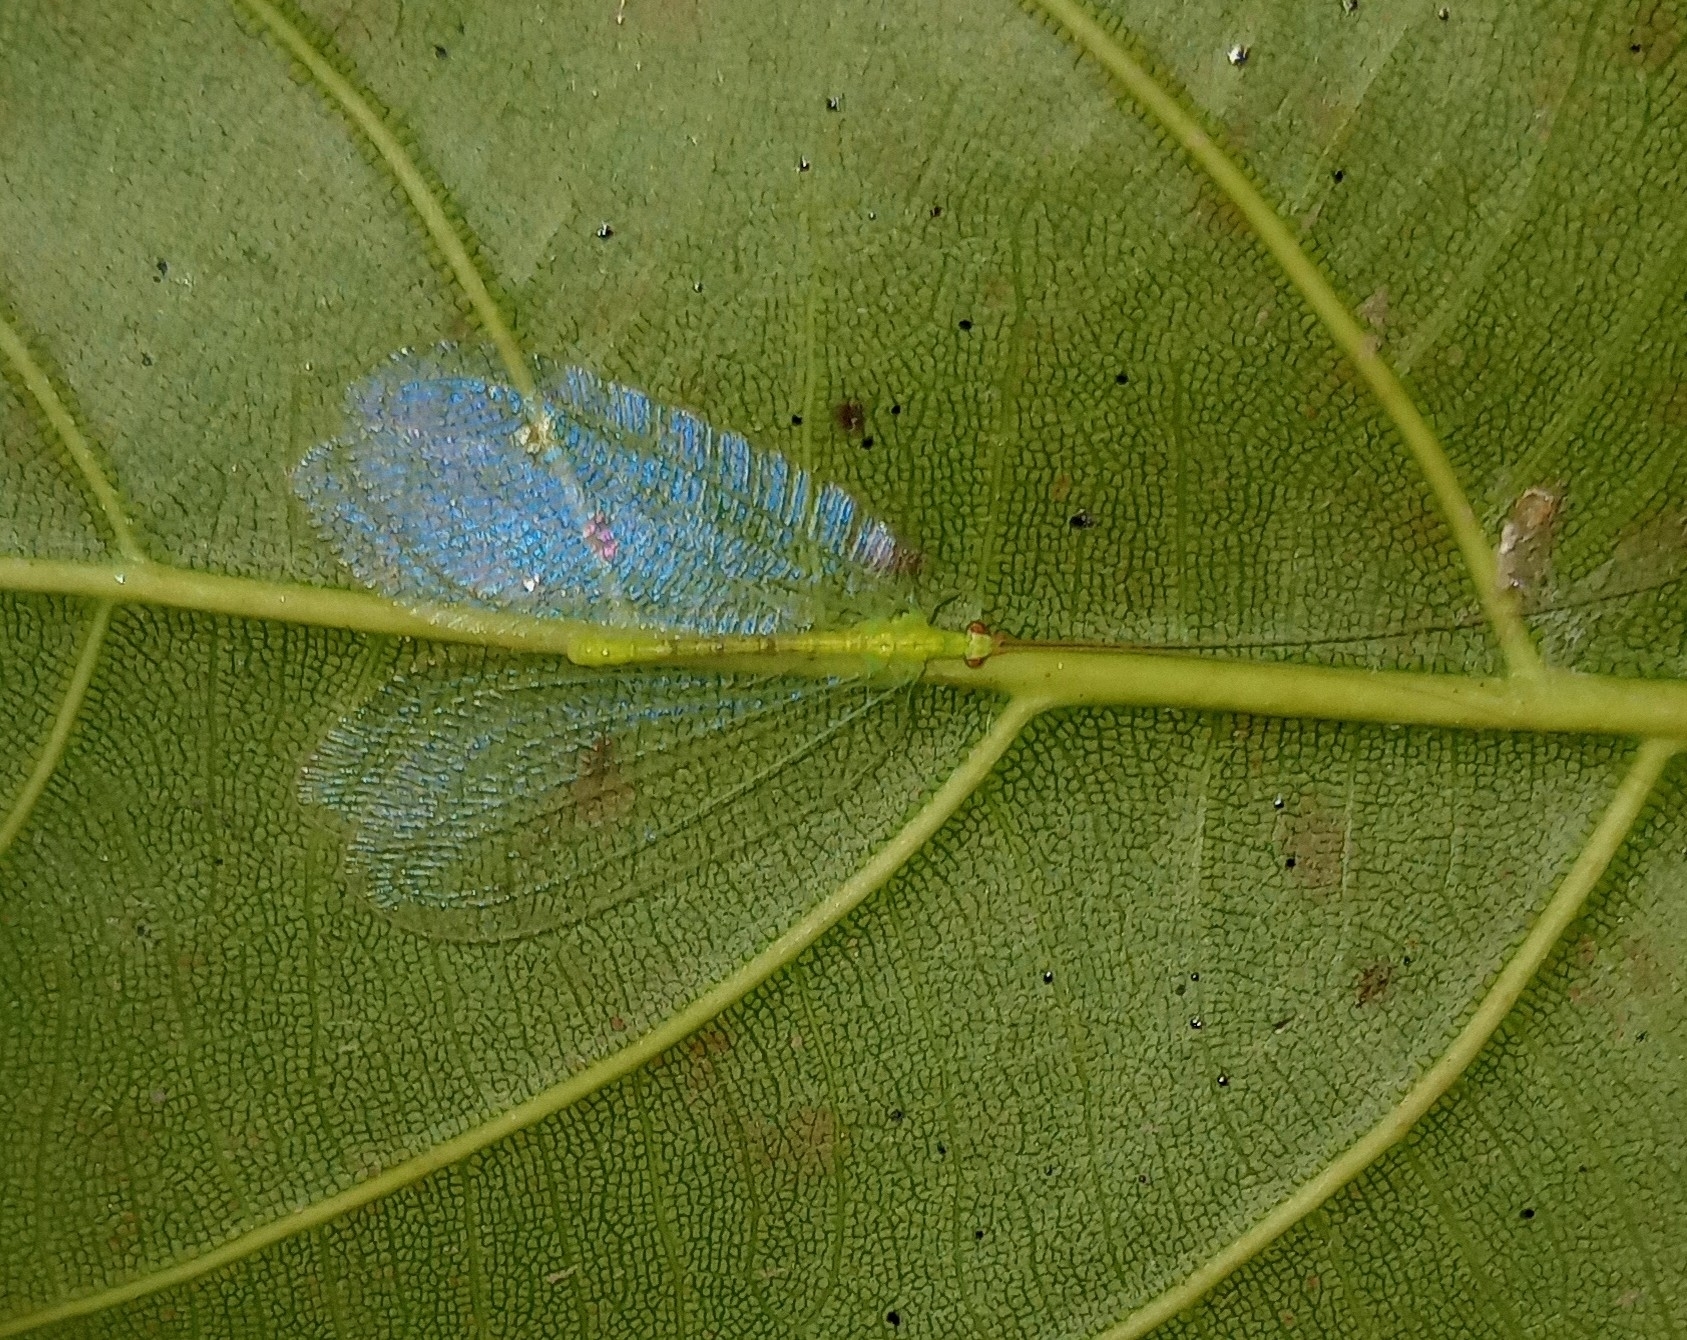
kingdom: Animalia
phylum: Arthropoda
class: Insecta
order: Neuroptera
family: Chrysopidae
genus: Apochrysa
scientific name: Apochrysa evanida
